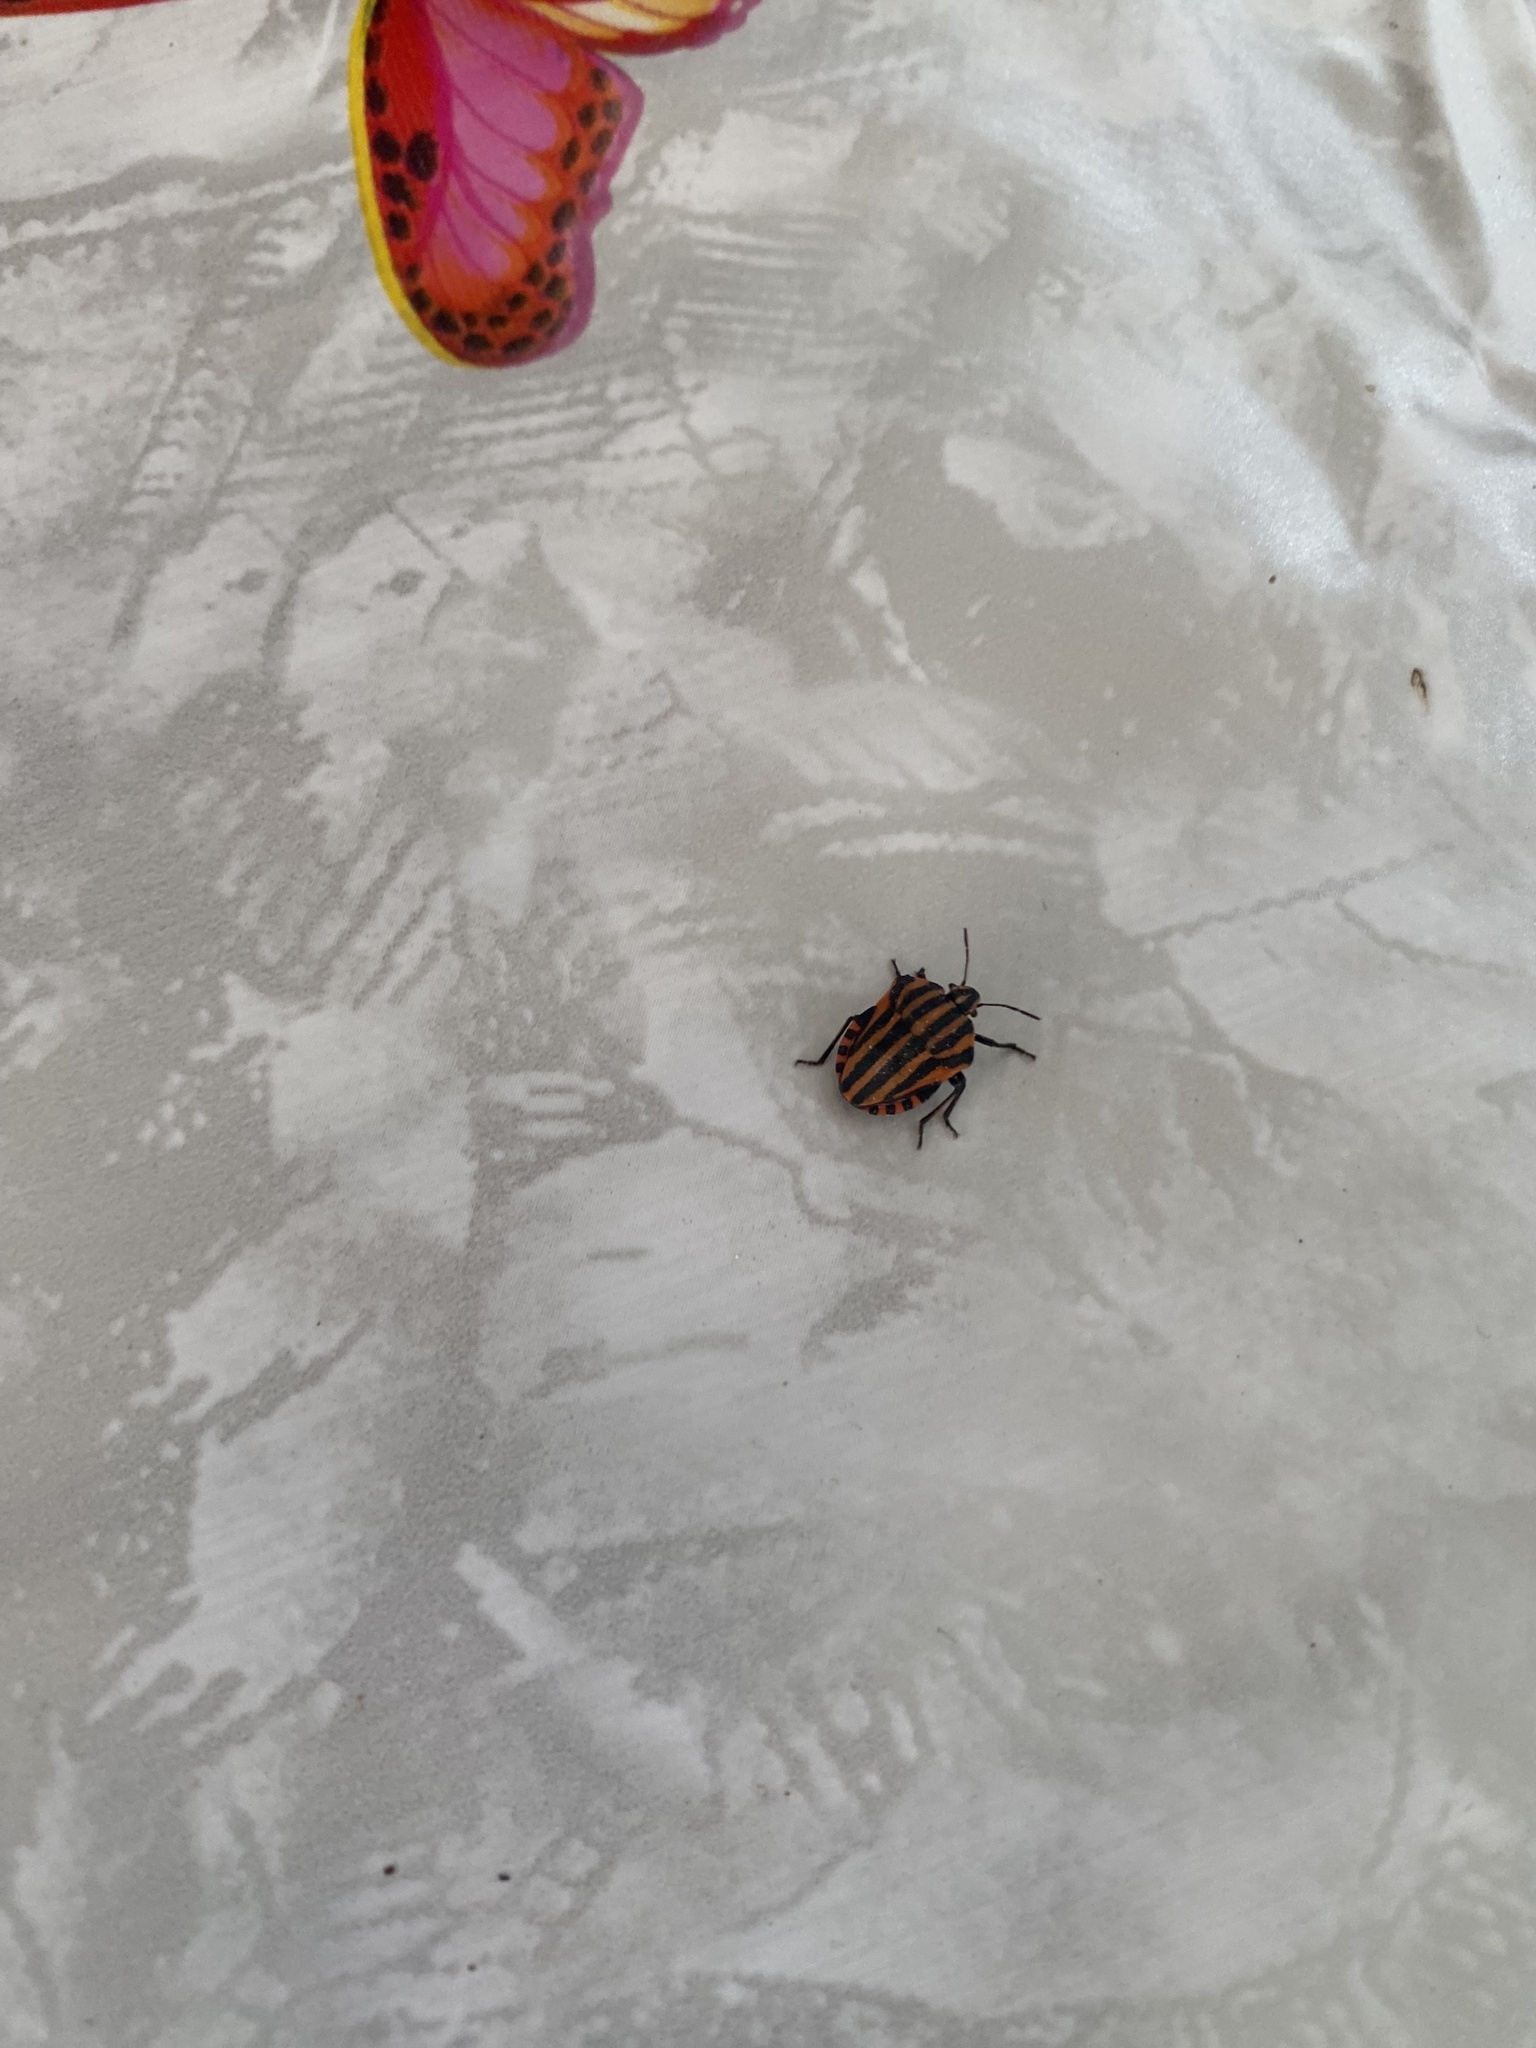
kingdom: Animalia
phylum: Arthropoda
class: Insecta
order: Hemiptera
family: Pentatomidae
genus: Graphosoma
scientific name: Graphosoma italicum
